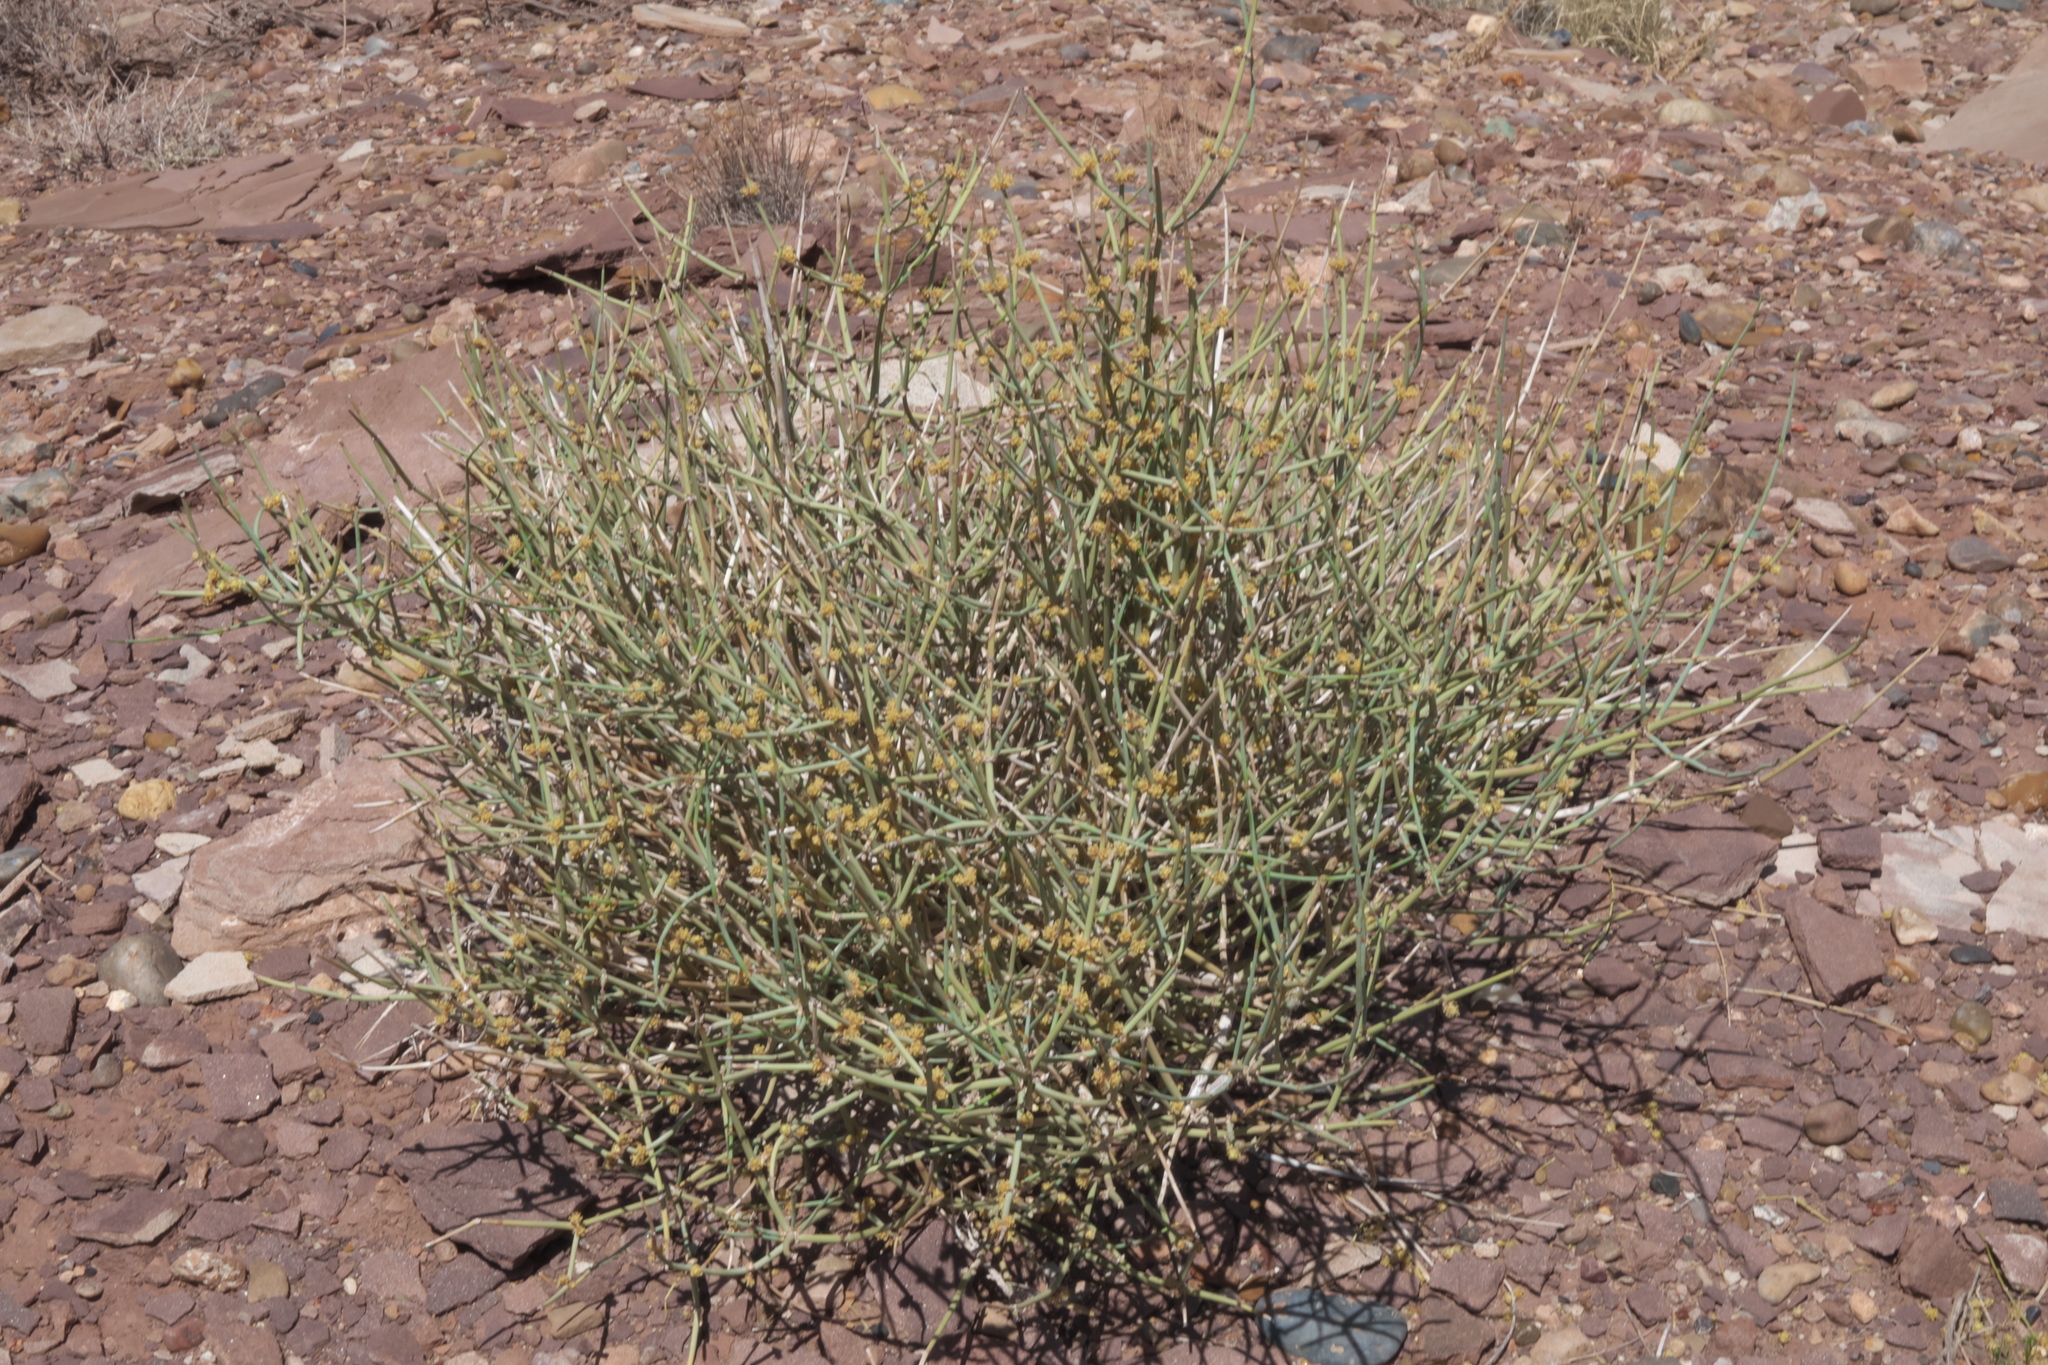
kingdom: Plantae
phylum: Tracheophyta
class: Gnetopsida
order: Ephedrales
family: Ephedraceae
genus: Ephedra
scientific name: Ephedra torreyana
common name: Torrey ephedra
